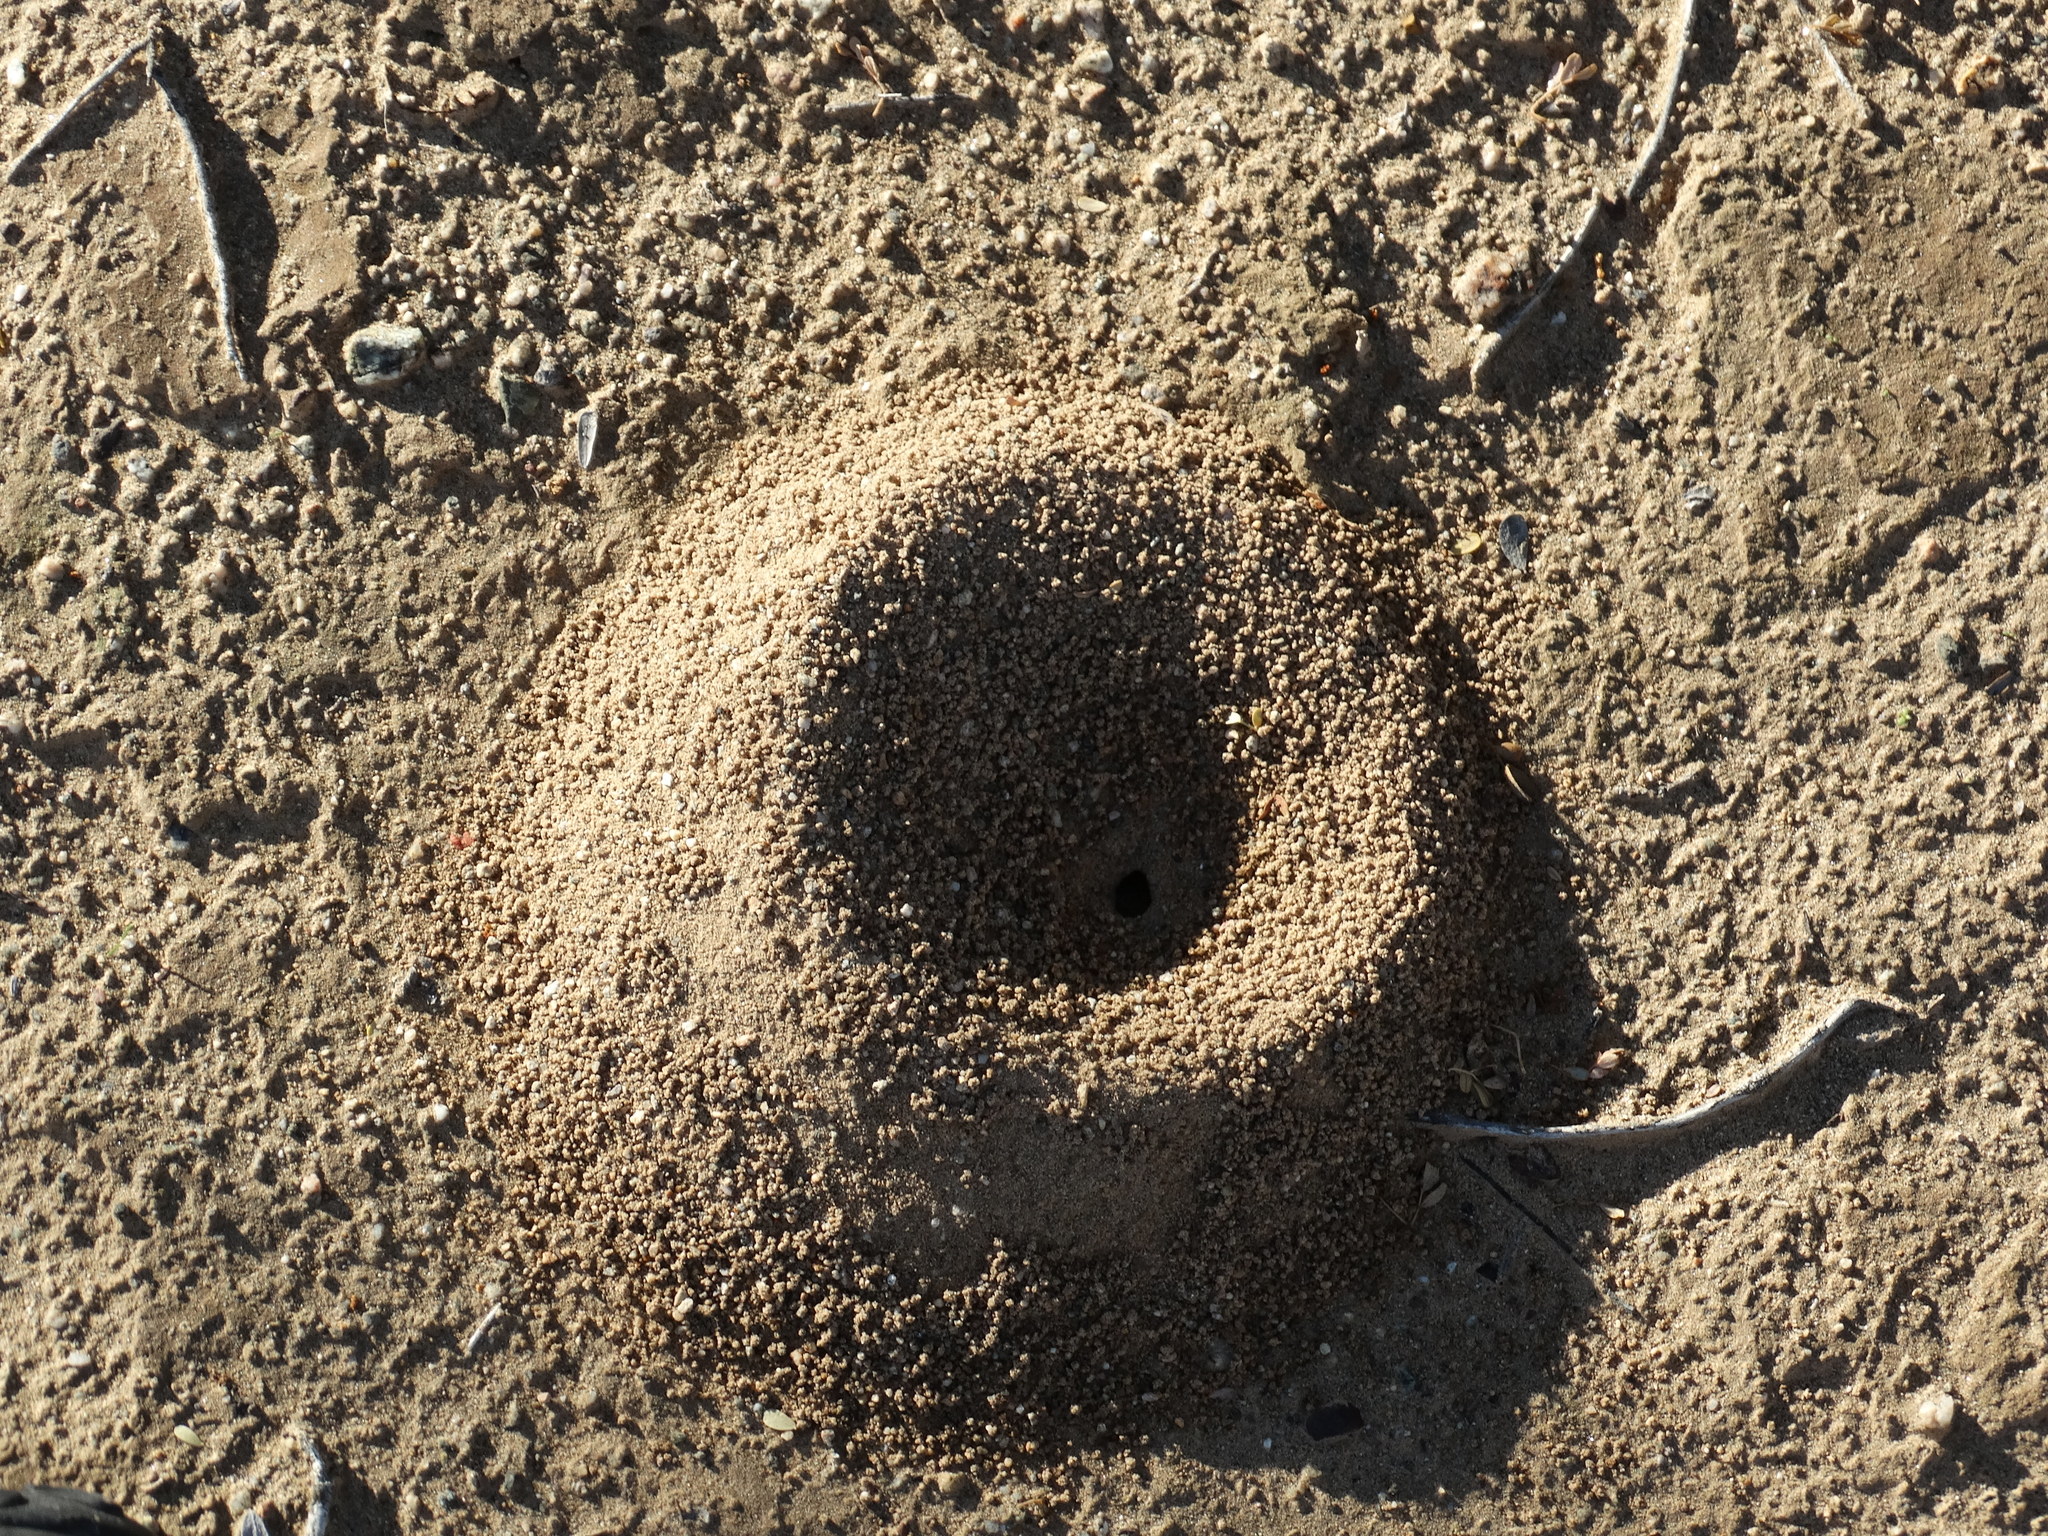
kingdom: Animalia
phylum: Arthropoda
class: Insecta
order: Hymenoptera
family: Formicidae
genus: Acromyrmex
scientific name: Acromyrmex versicolor
